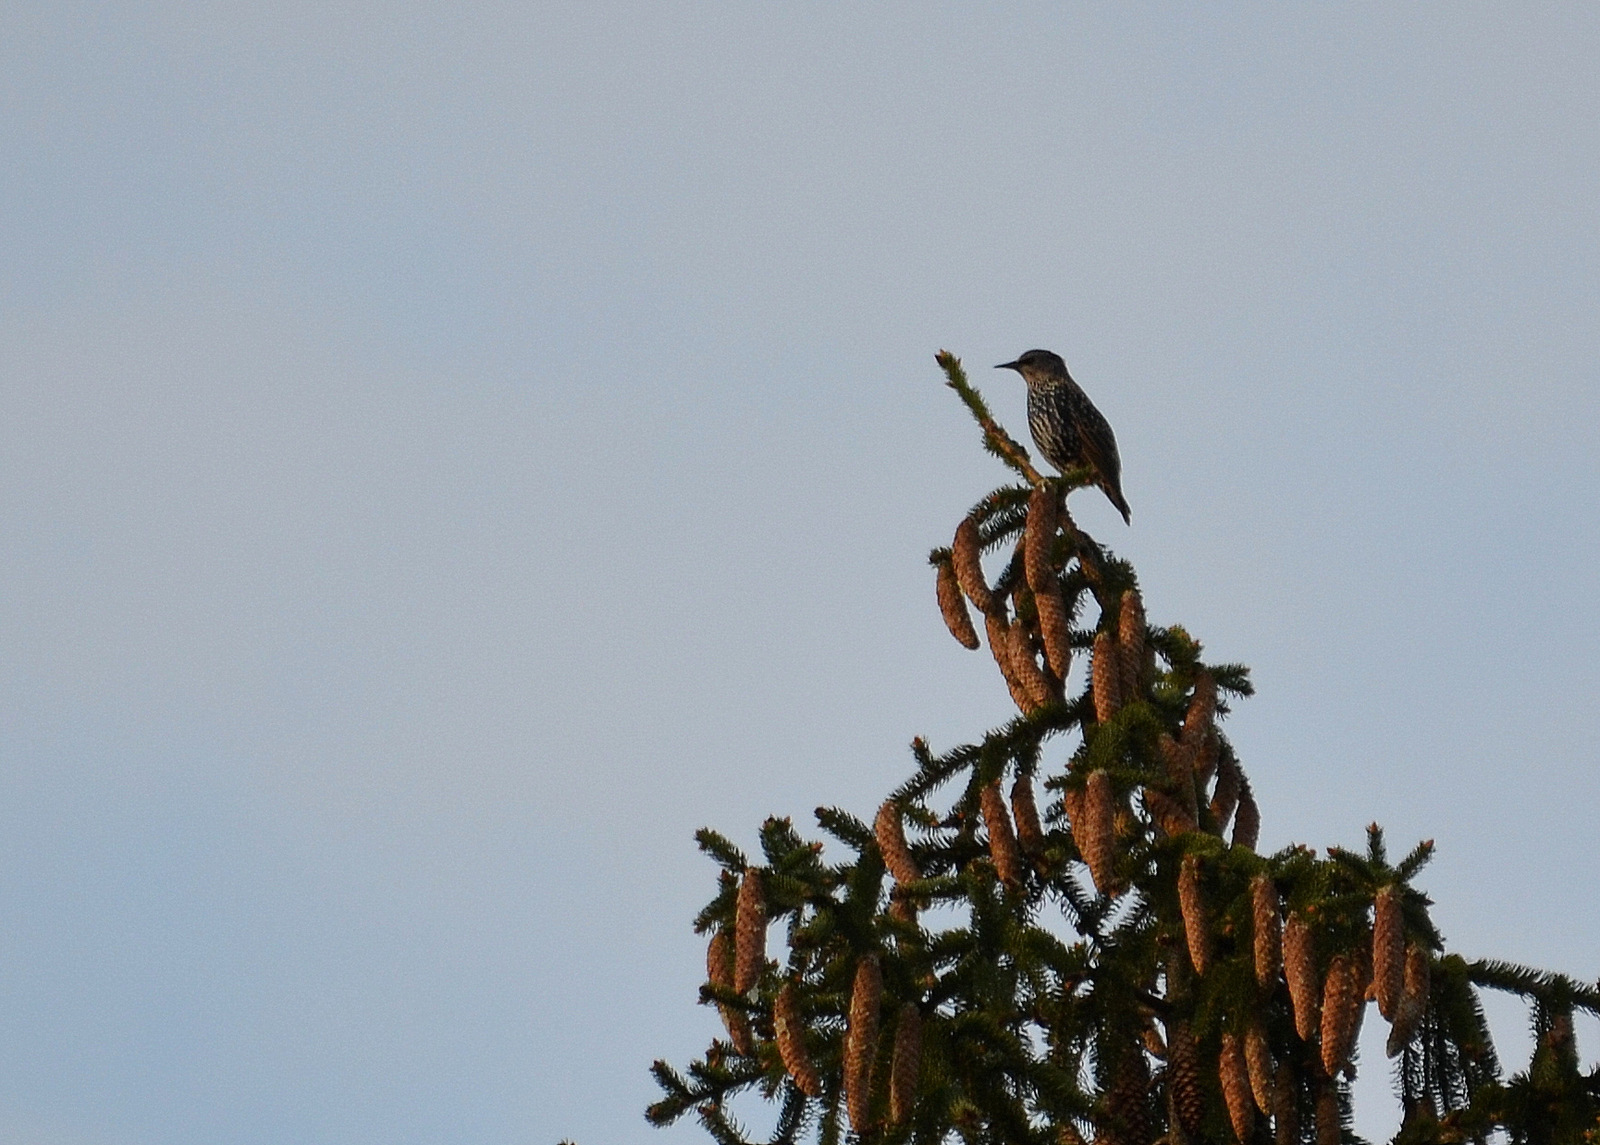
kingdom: Animalia
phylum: Chordata
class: Aves
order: Passeriformes
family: Sturnidae
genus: Sturnus
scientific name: Sturnus vulgaris
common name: Common starling
